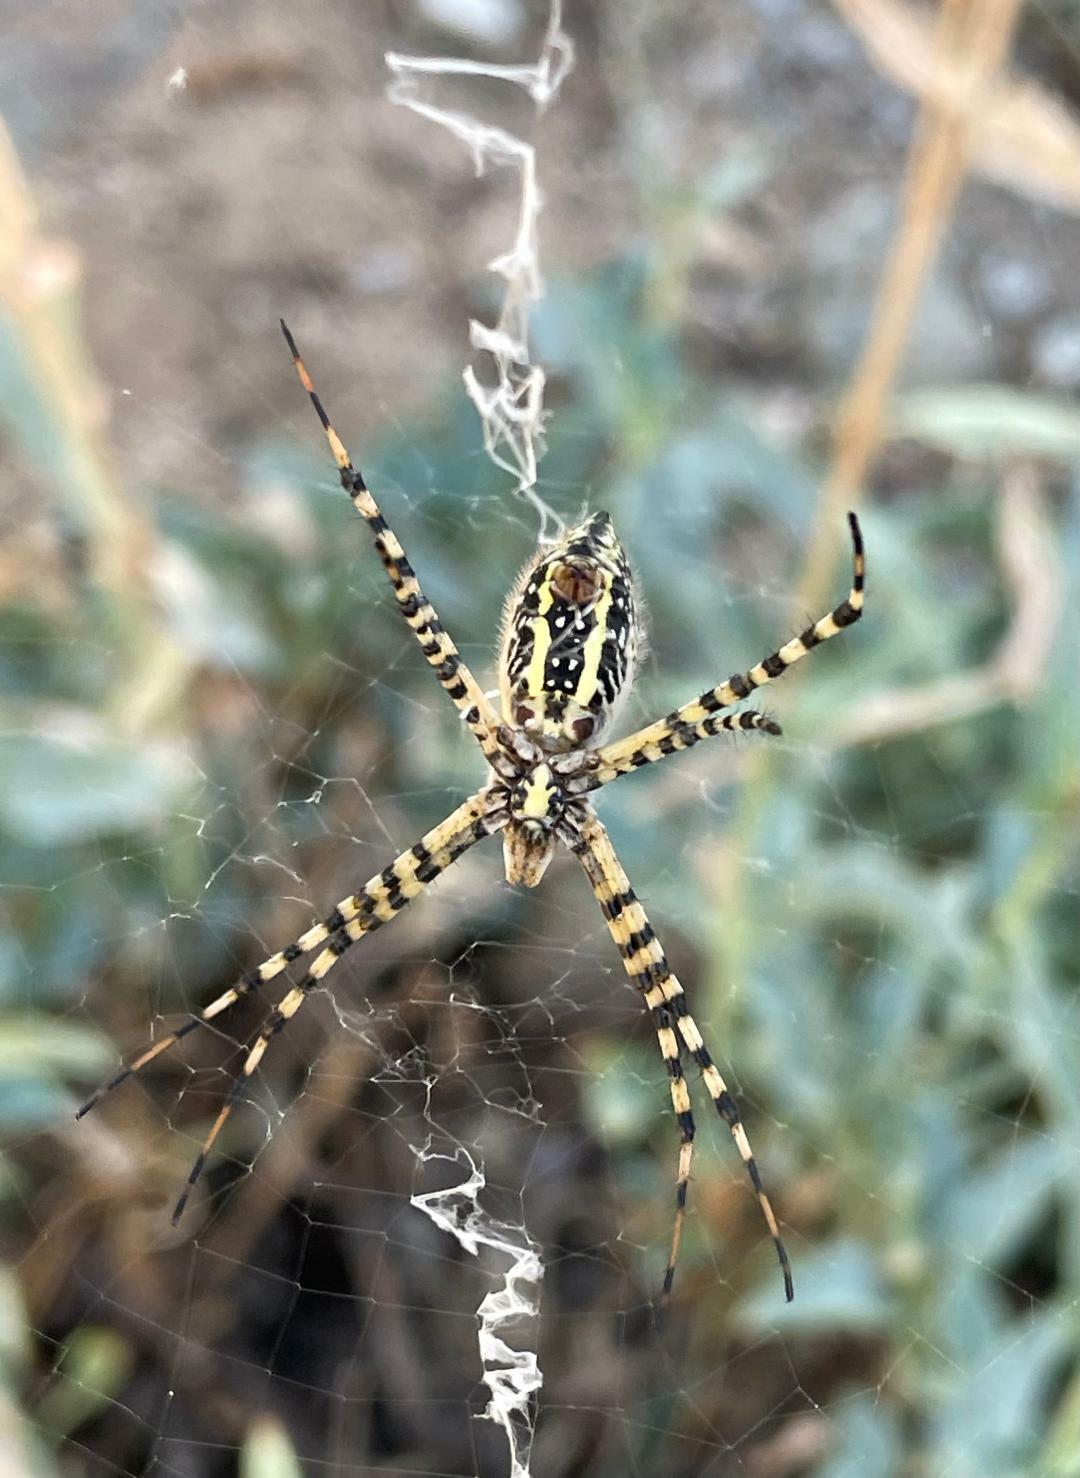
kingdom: Animalia
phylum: Arthropoda
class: Arachnida
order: Araneae
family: Araneidae
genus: Argiope
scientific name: Argiope trifasciata
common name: Banded garden spider
